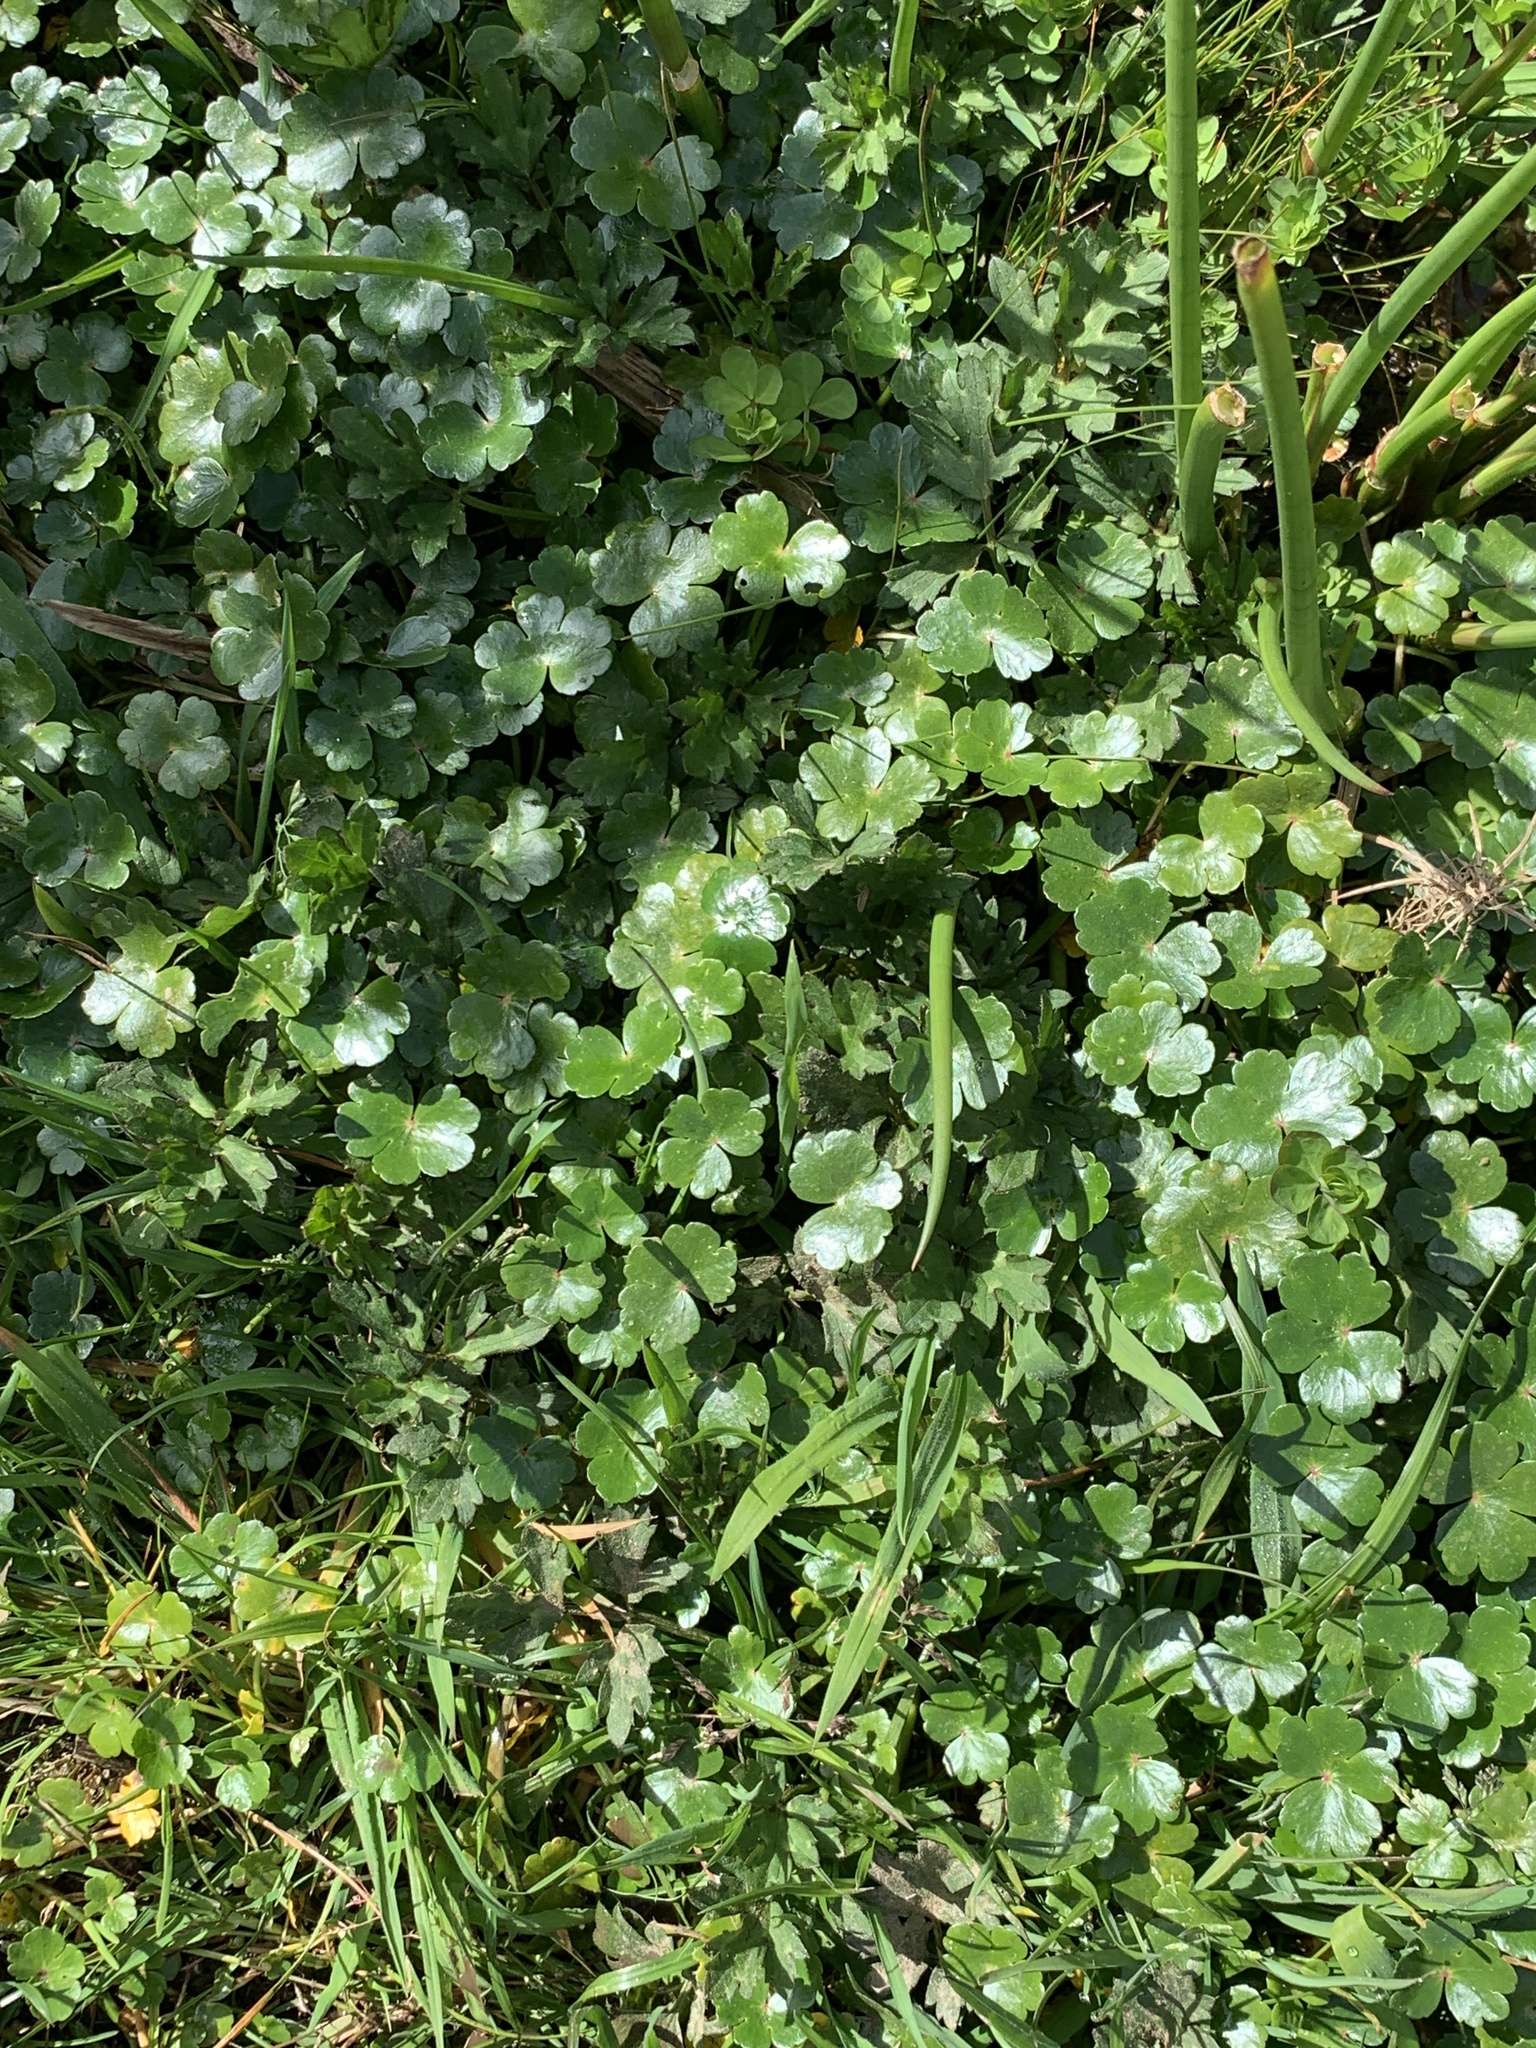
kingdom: Plantae
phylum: Tracheophyta
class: Magnoliopsida
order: Apiales
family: Araliaceae
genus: Hydrocotyle
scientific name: Hydrocotyle ranunculoides
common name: Floating pennywort
